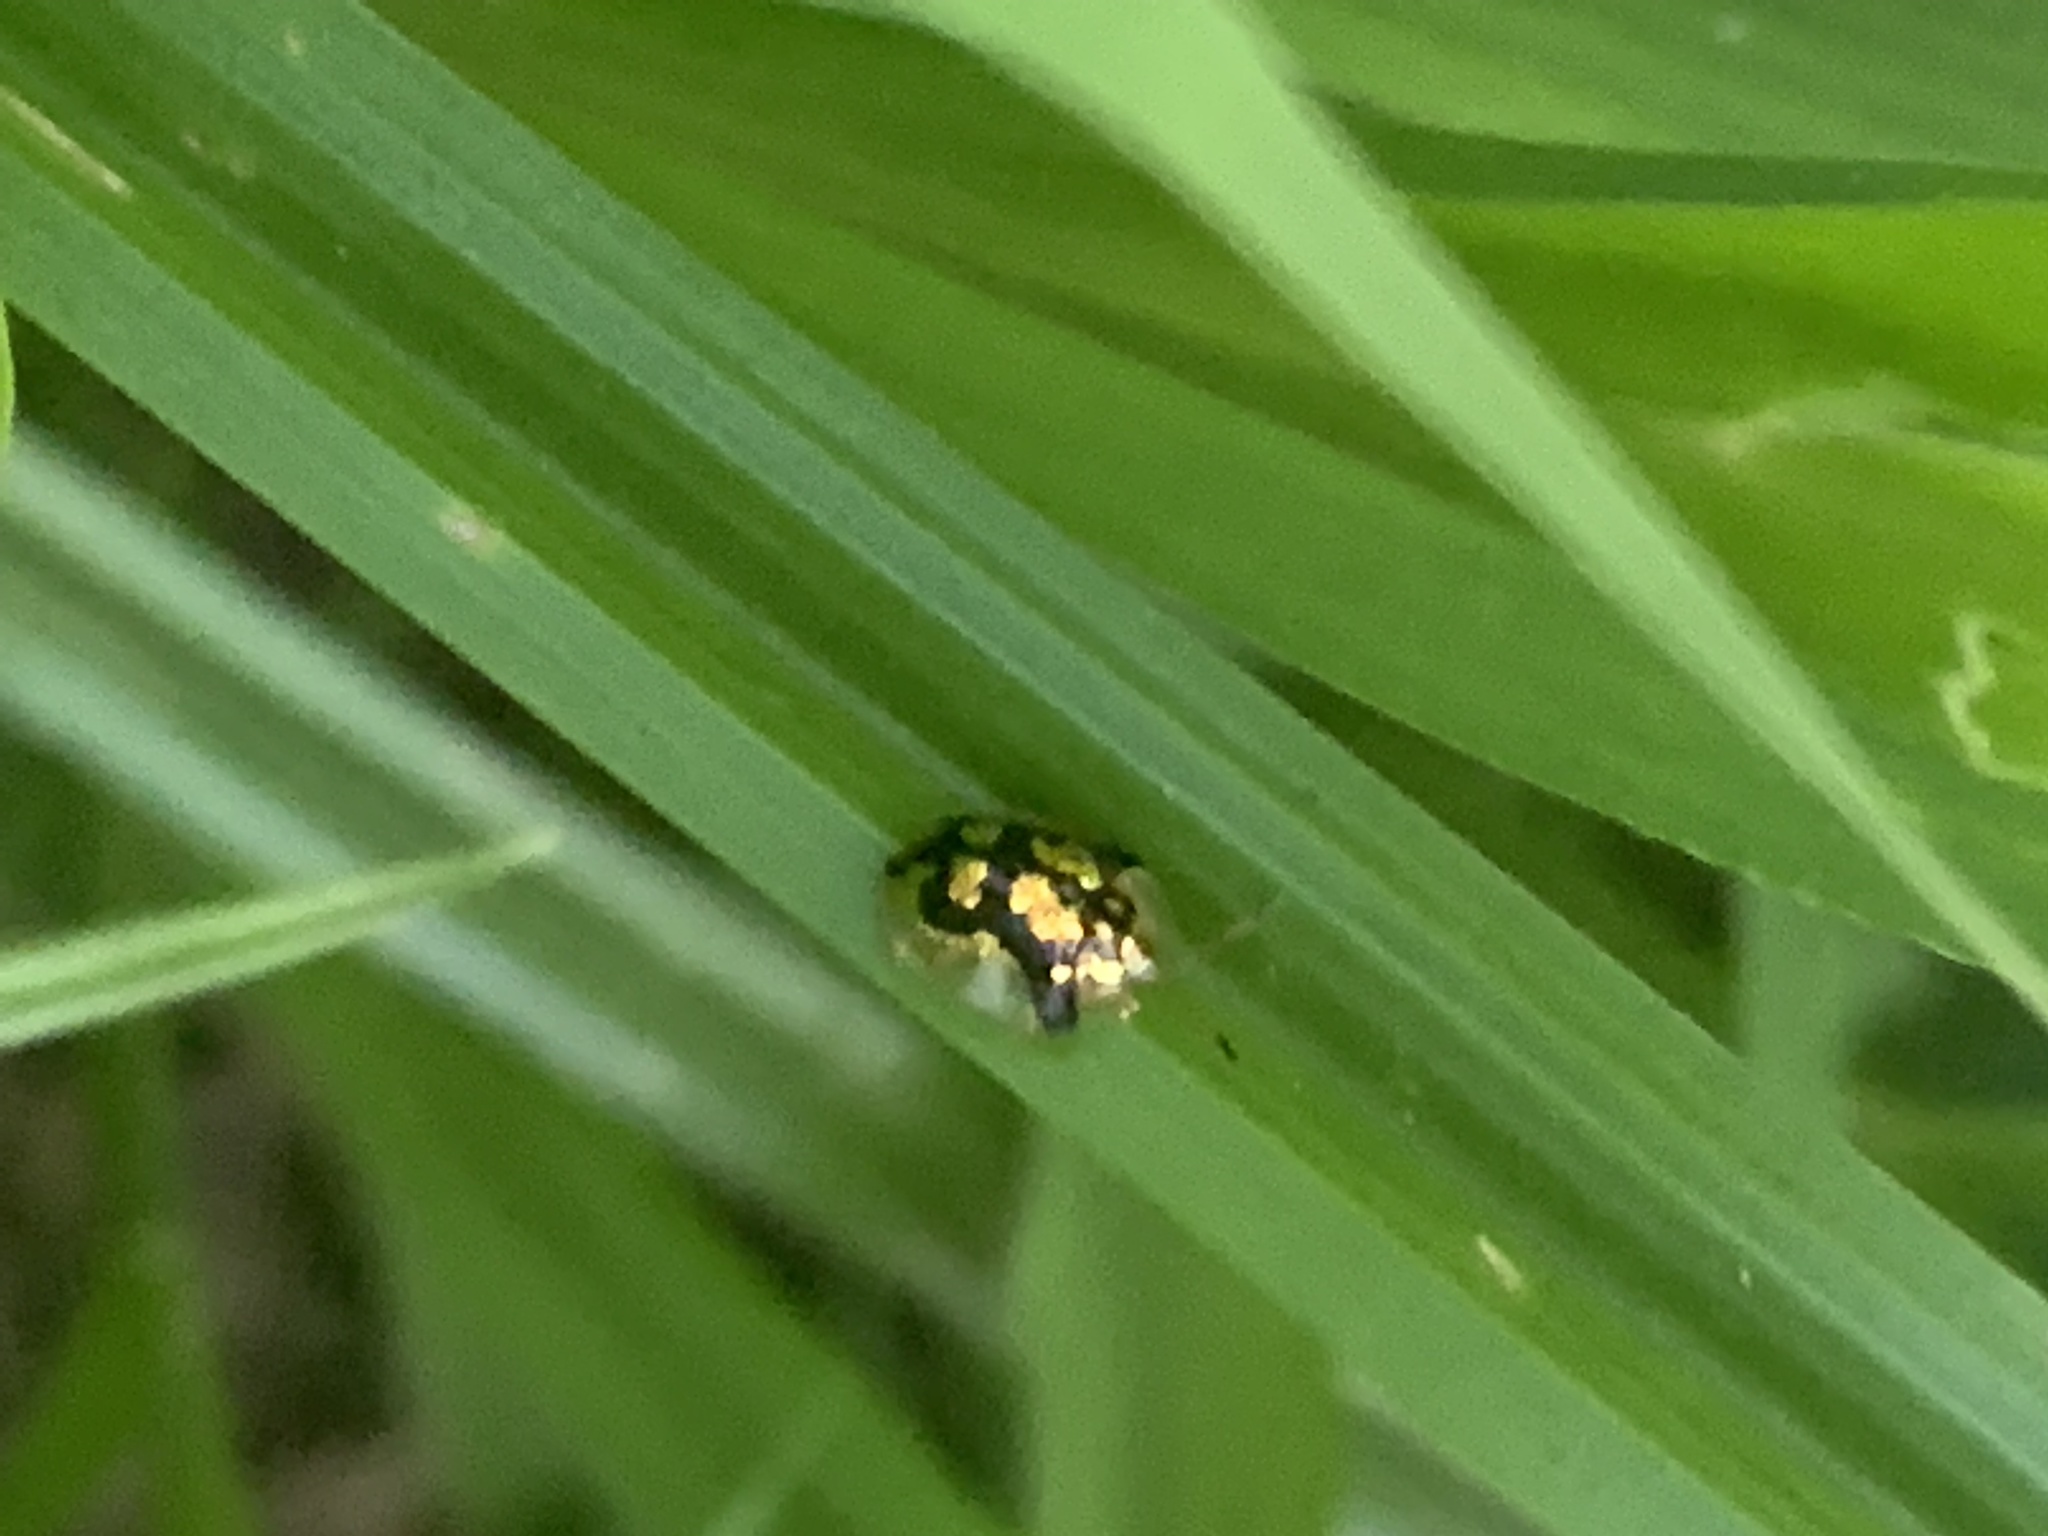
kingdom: Animalia
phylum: Arthropoda
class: Insecta
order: Coleoptera
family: Chrysomelidae
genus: Deloyala
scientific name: Deloyala guttata
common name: Mottled tortoise beetle
